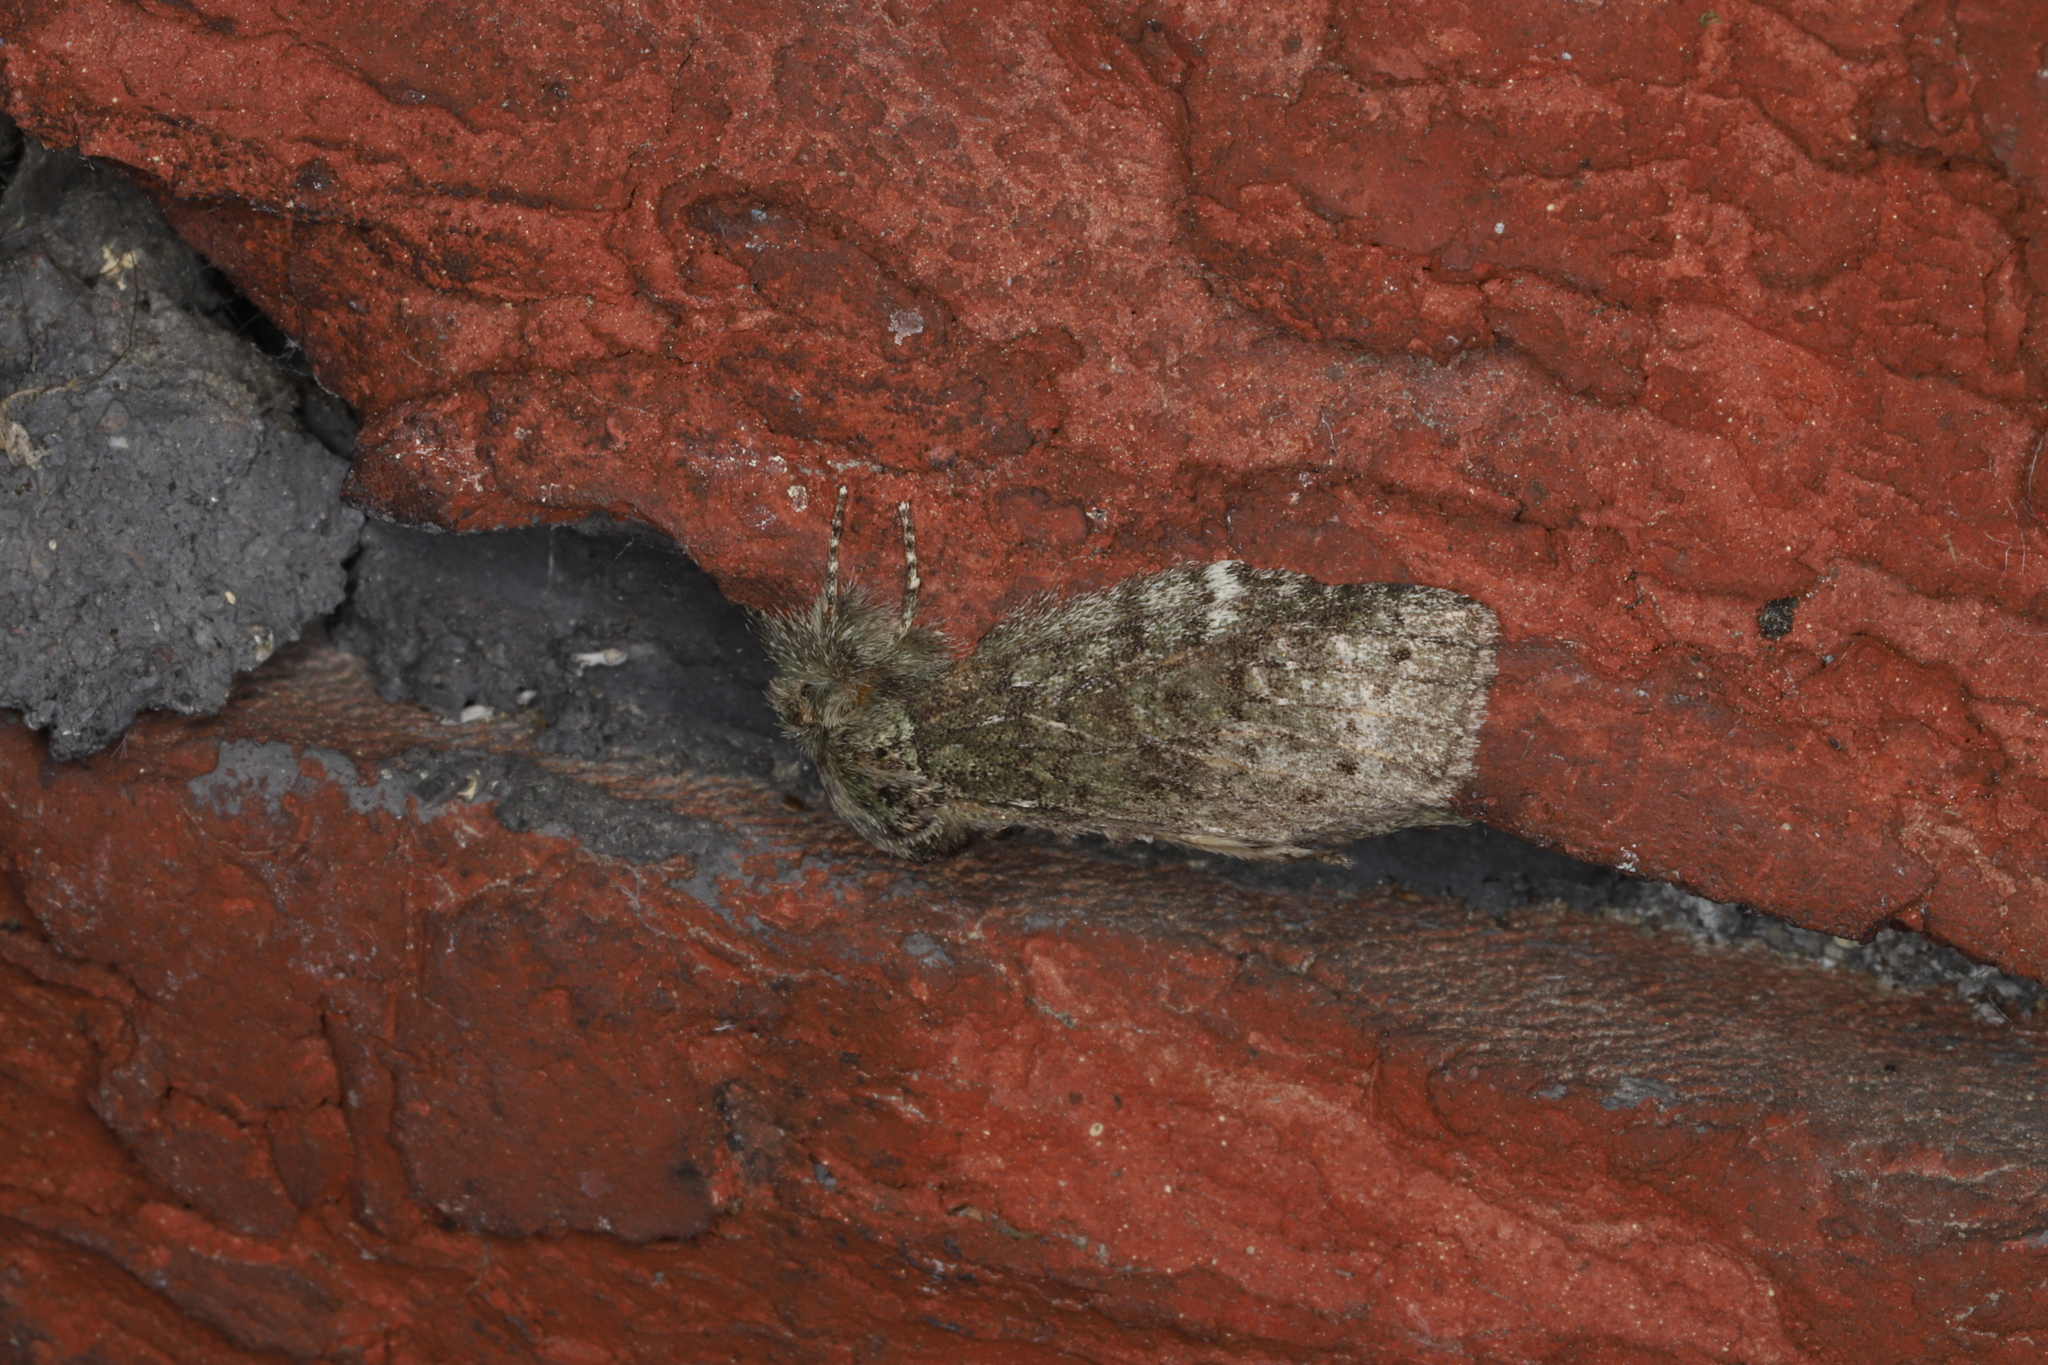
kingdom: Animalia
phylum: Arthropoda
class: Insecta
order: Lepidoptera
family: Notodontidae
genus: Disphragis
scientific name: Disphragis Cecrita guttivitta
